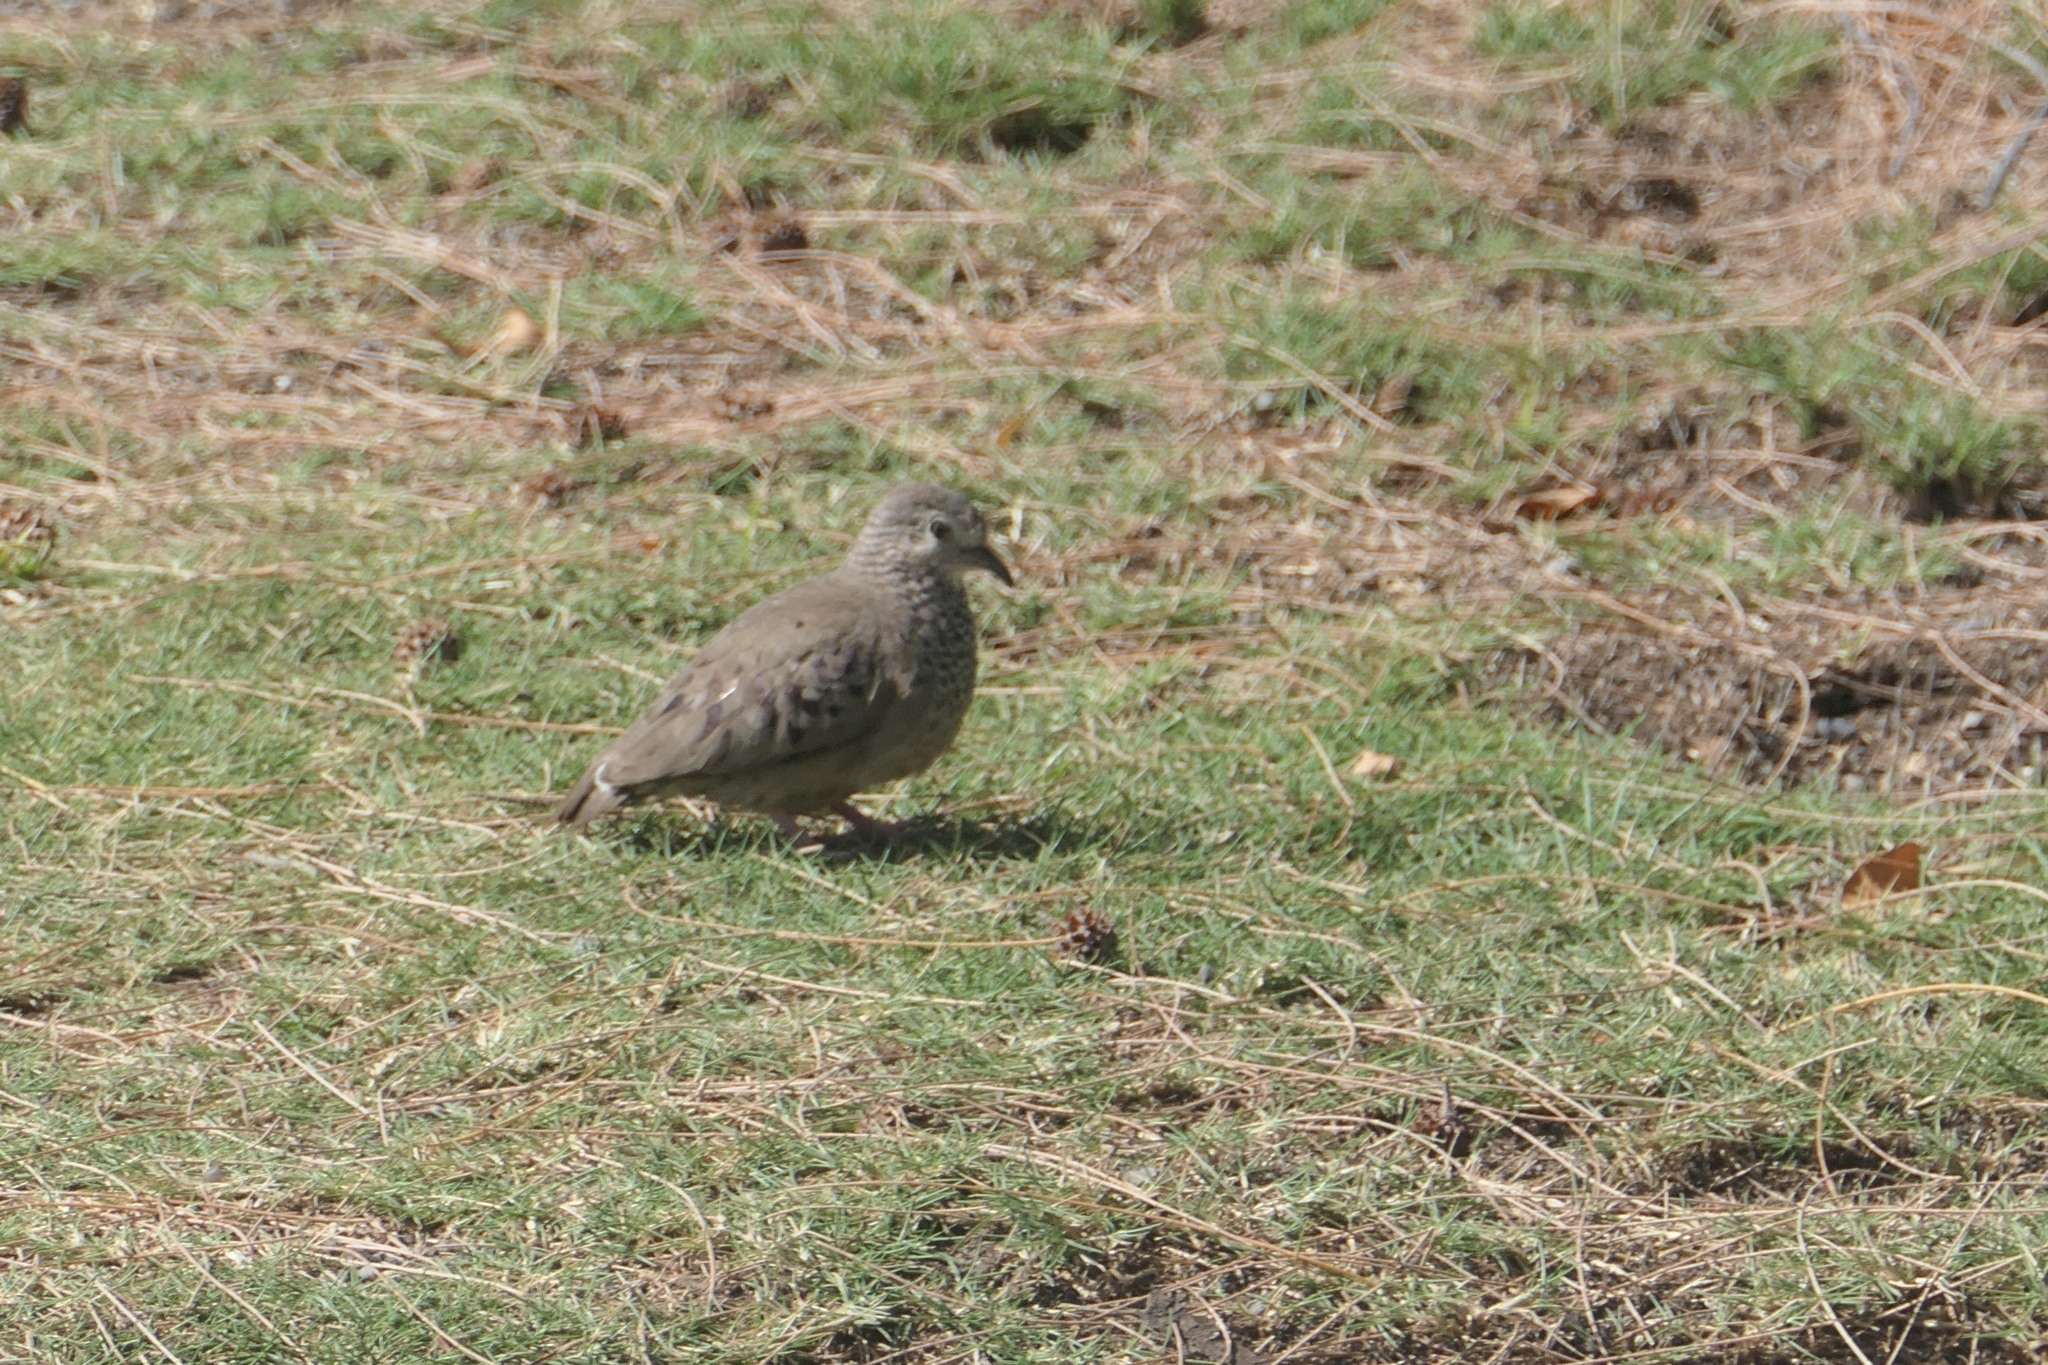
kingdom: Animalia
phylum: Chordata
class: Aves
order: Columbiformes
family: Columbidae
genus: Columbina
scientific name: Columbina passerina
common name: Common ground-dove
